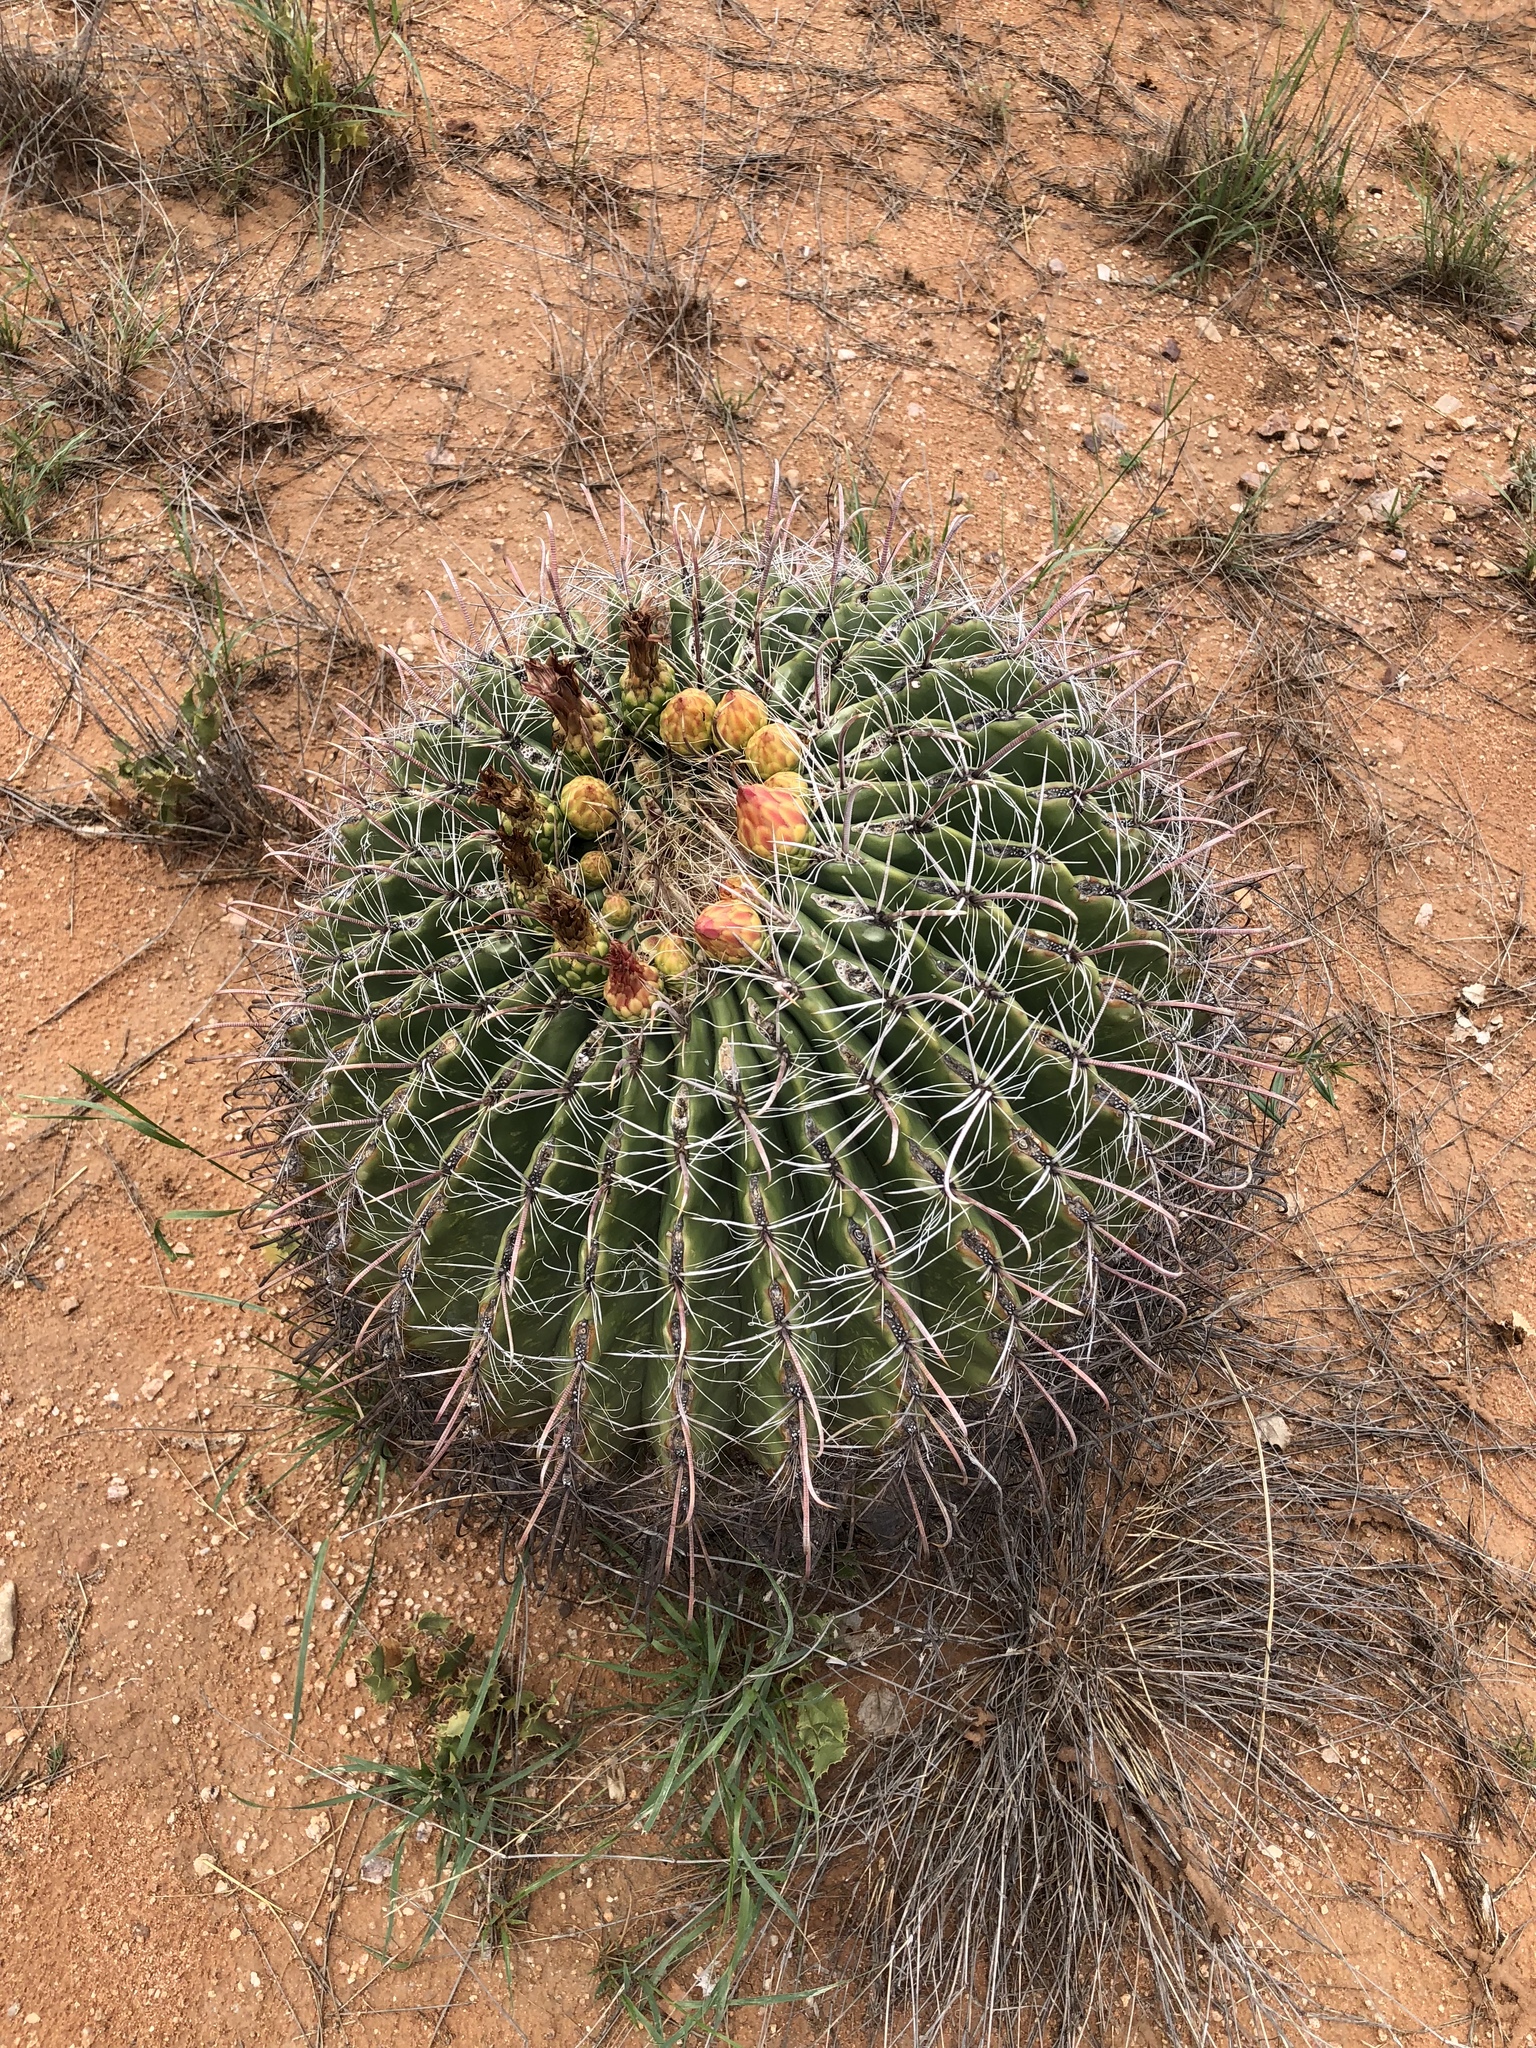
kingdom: Plantae
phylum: Tracheophyta
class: Magnoliopsida
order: Caryophyllales
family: Cactaceae
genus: Ferocactus
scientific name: Ferocactus wislizeni
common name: Candy barrel cactus
